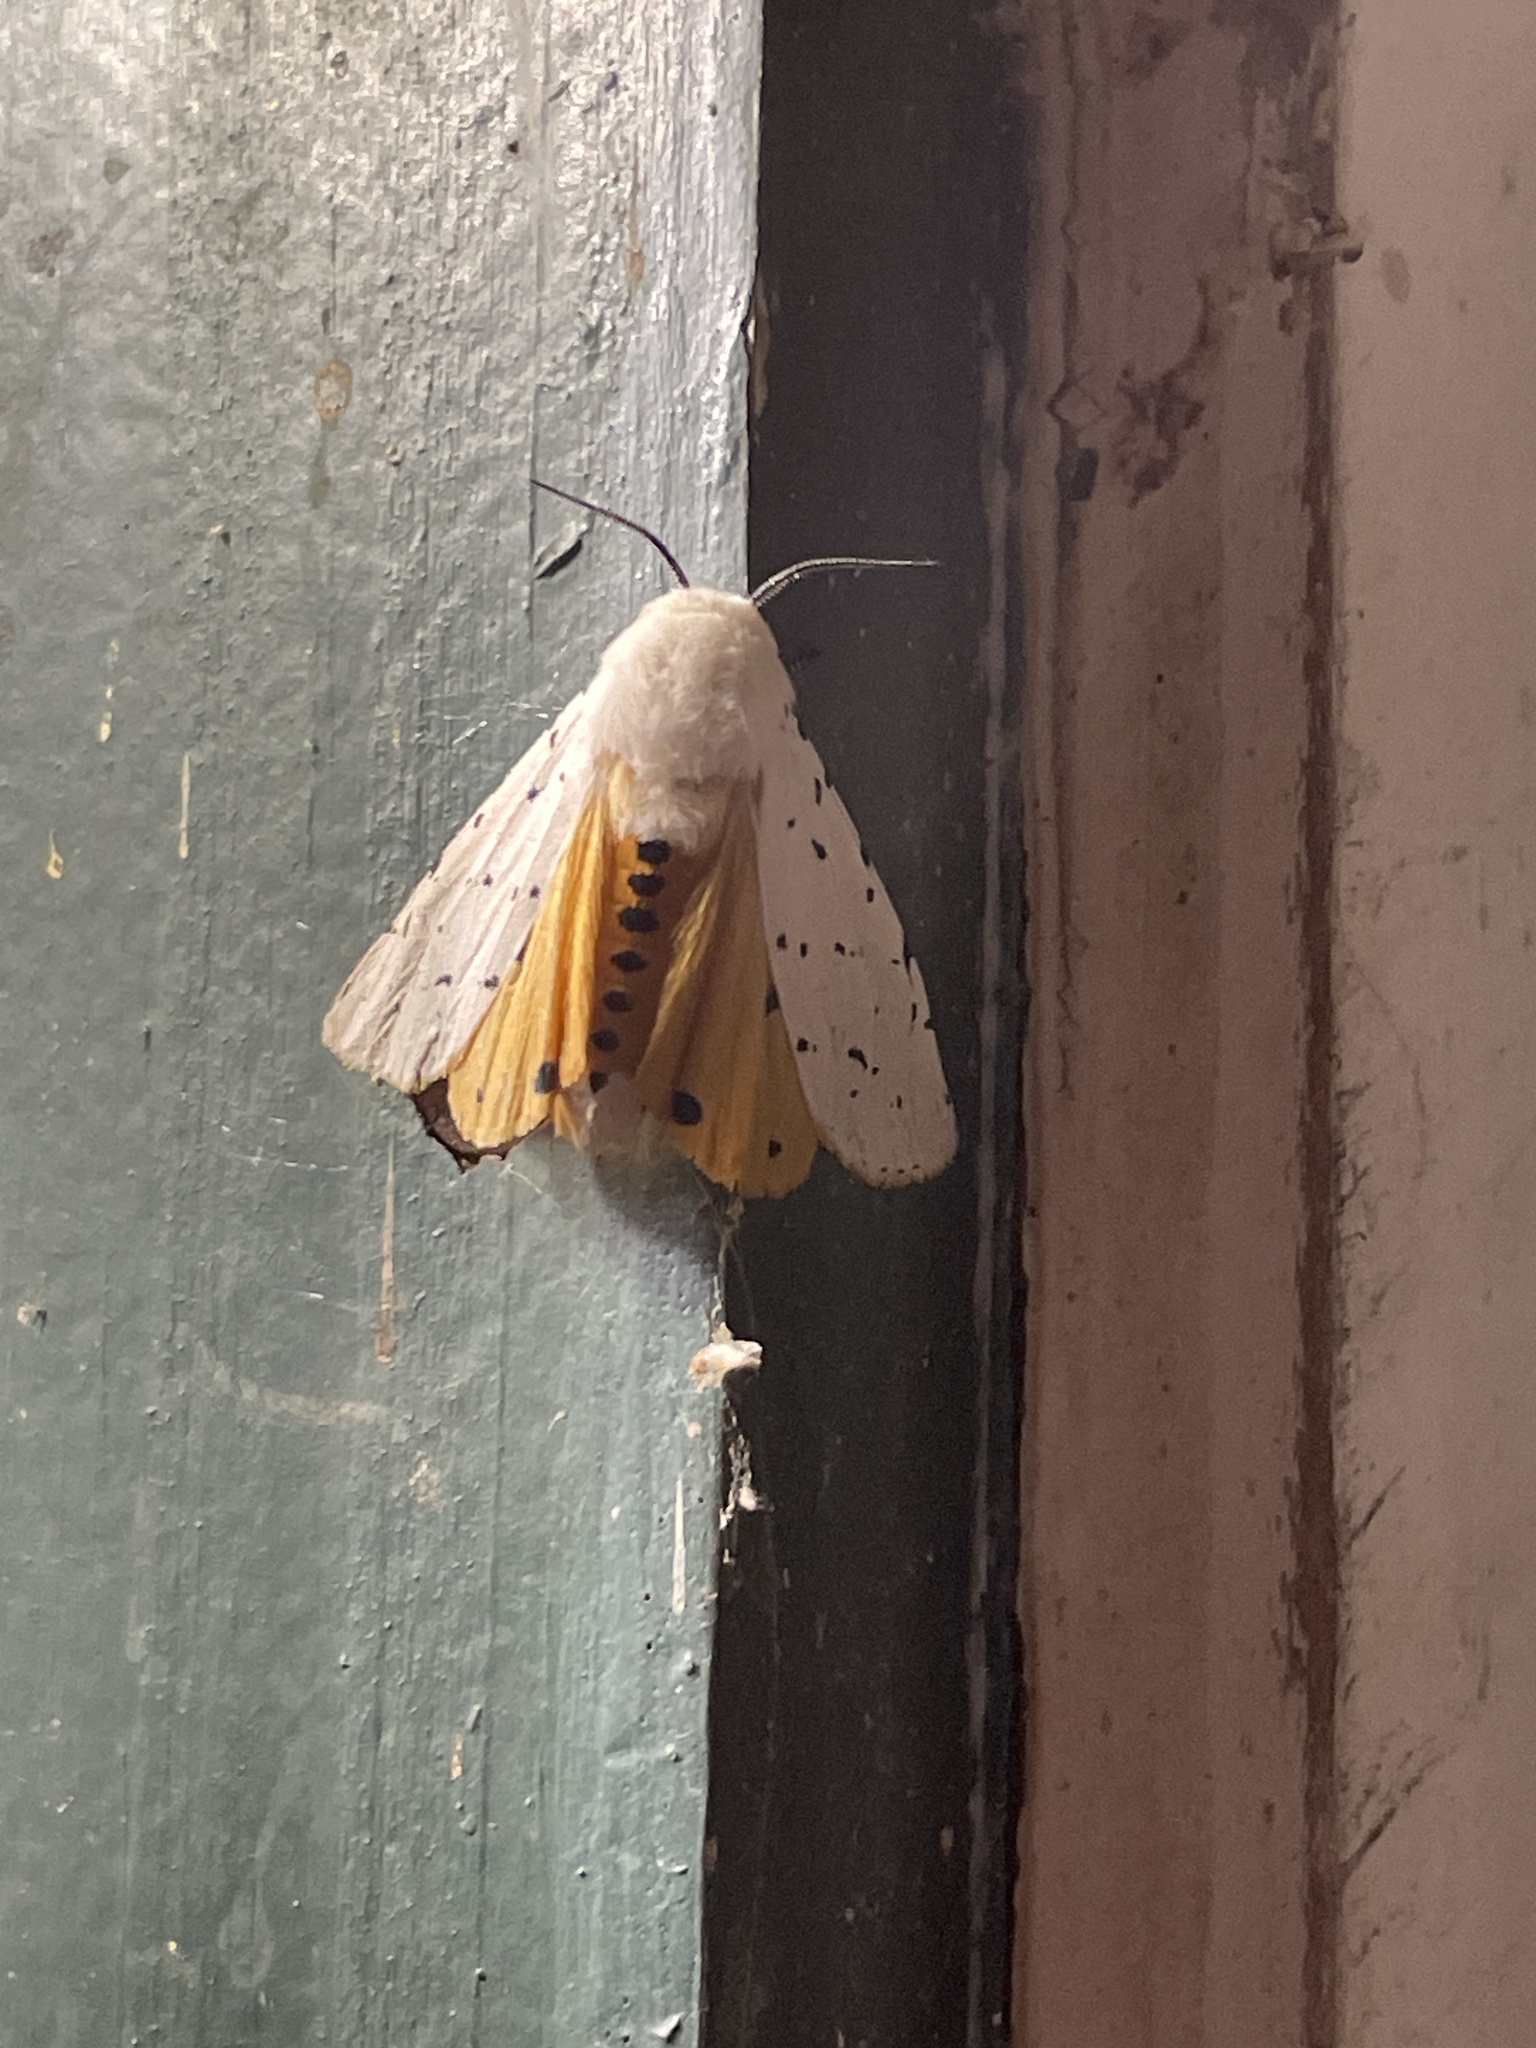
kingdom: Animalia
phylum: Arthropoda
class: Insecta
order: Lepidoptera
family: Erebidae
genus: Estigmene
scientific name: Estigmene acrea
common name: Salt marsh moth
